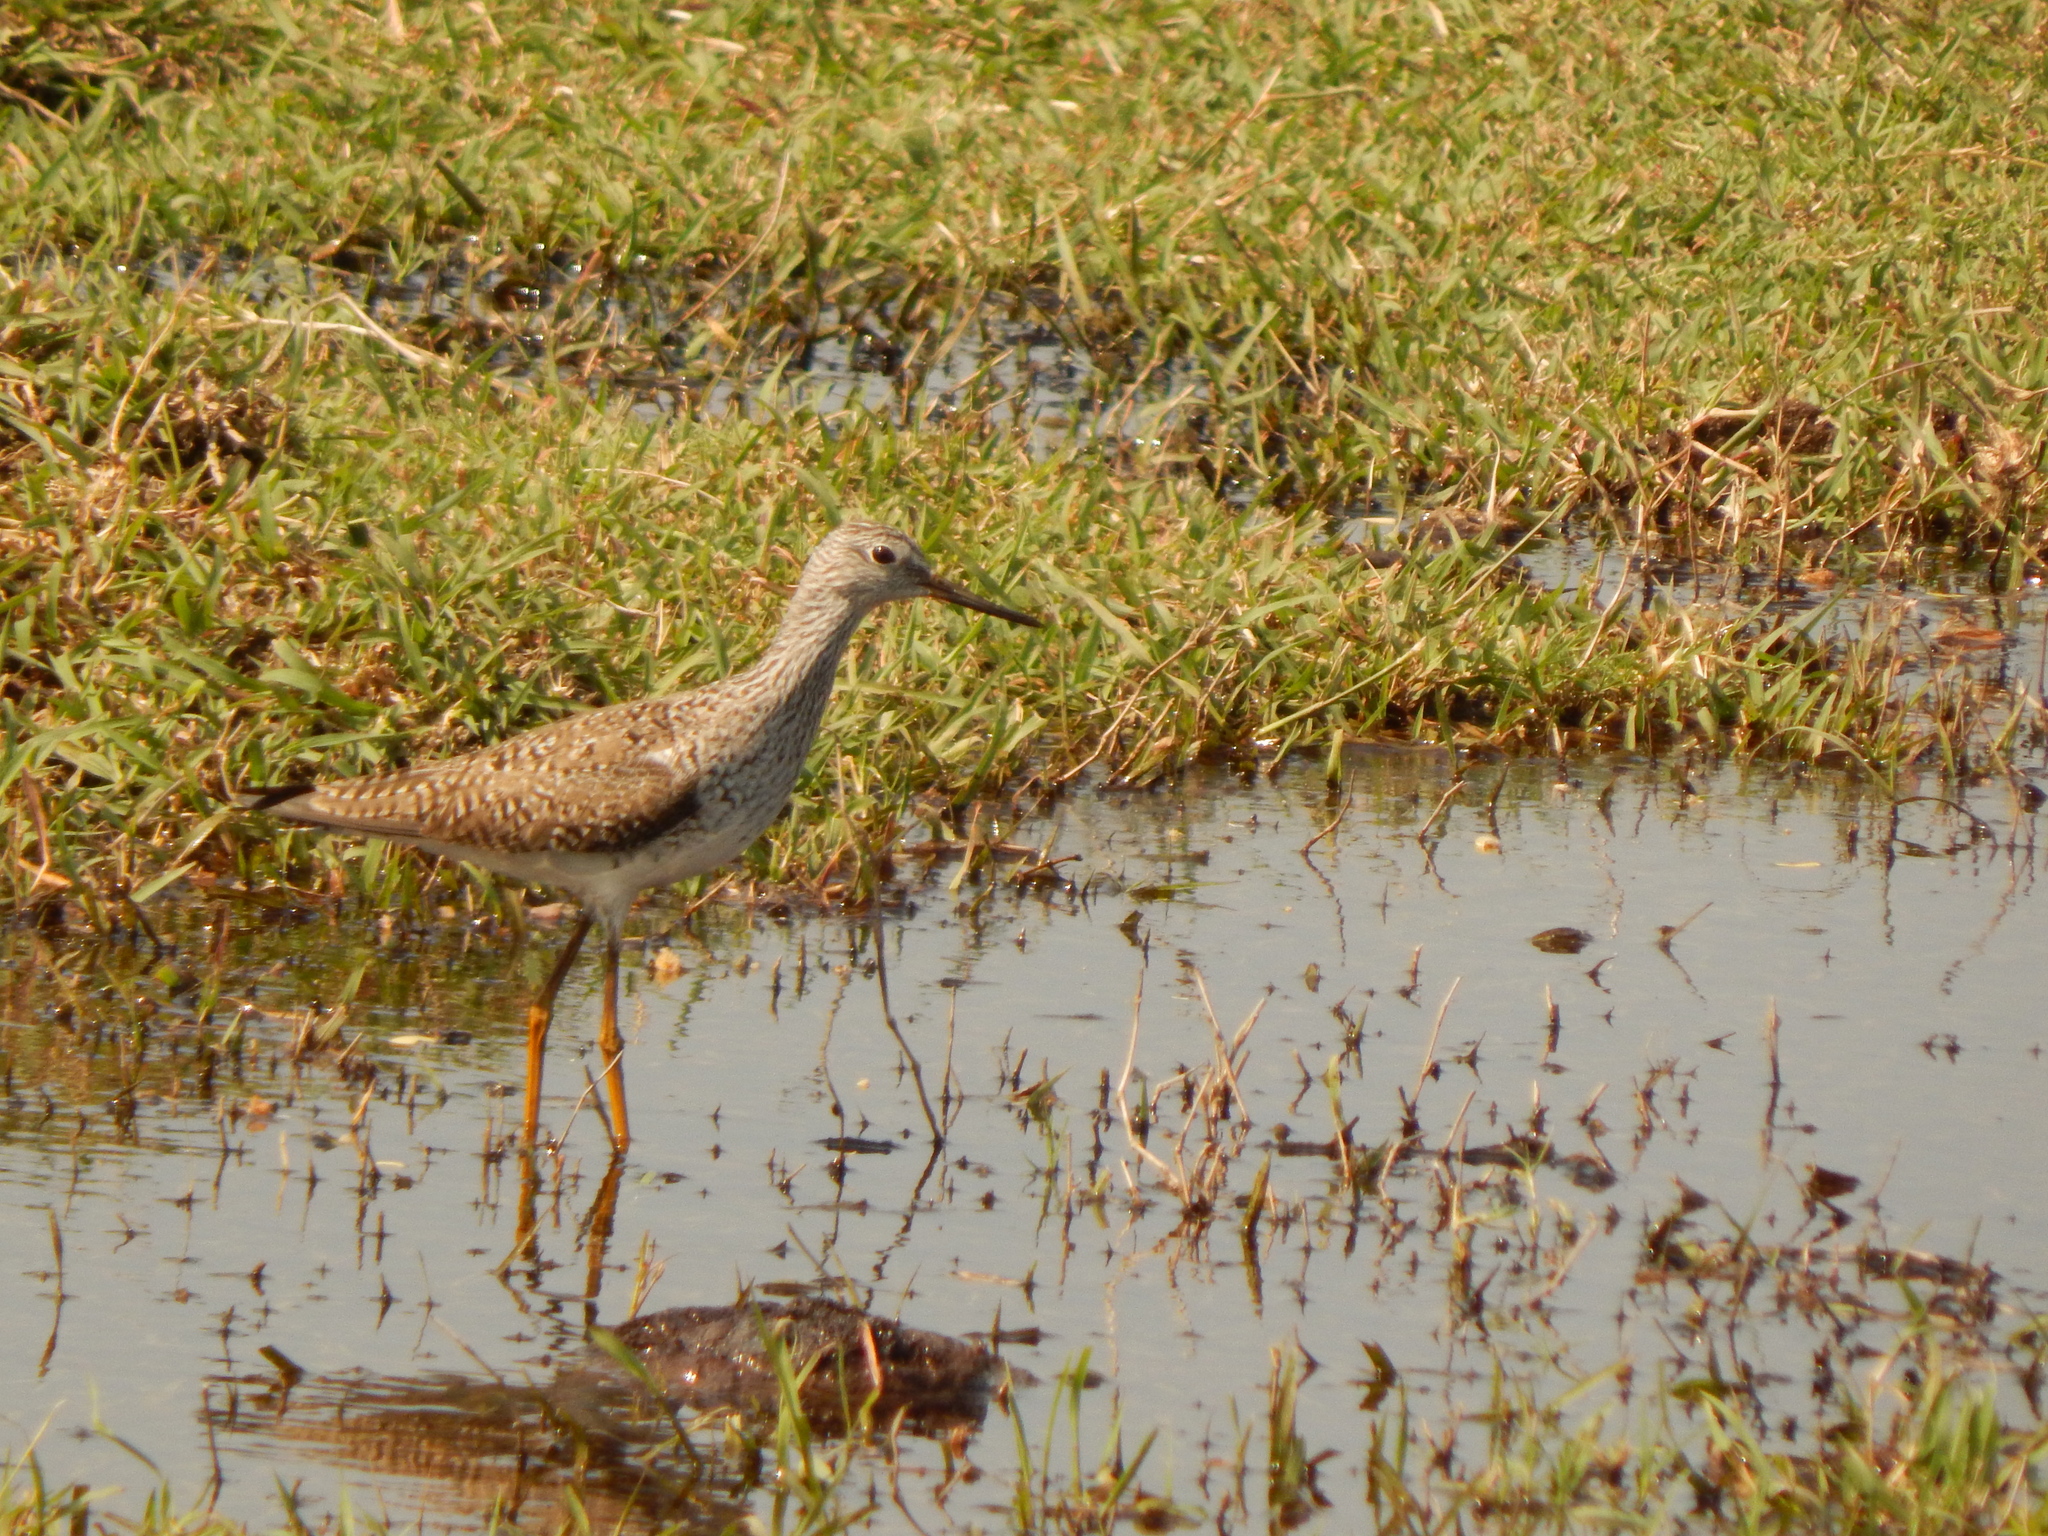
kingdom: Animalia
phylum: Chordata
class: Aves
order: Charadriiformes
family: Scolopacidae
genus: Tringa
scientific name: Tringa flavipes
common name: Lesser yellowlegs
